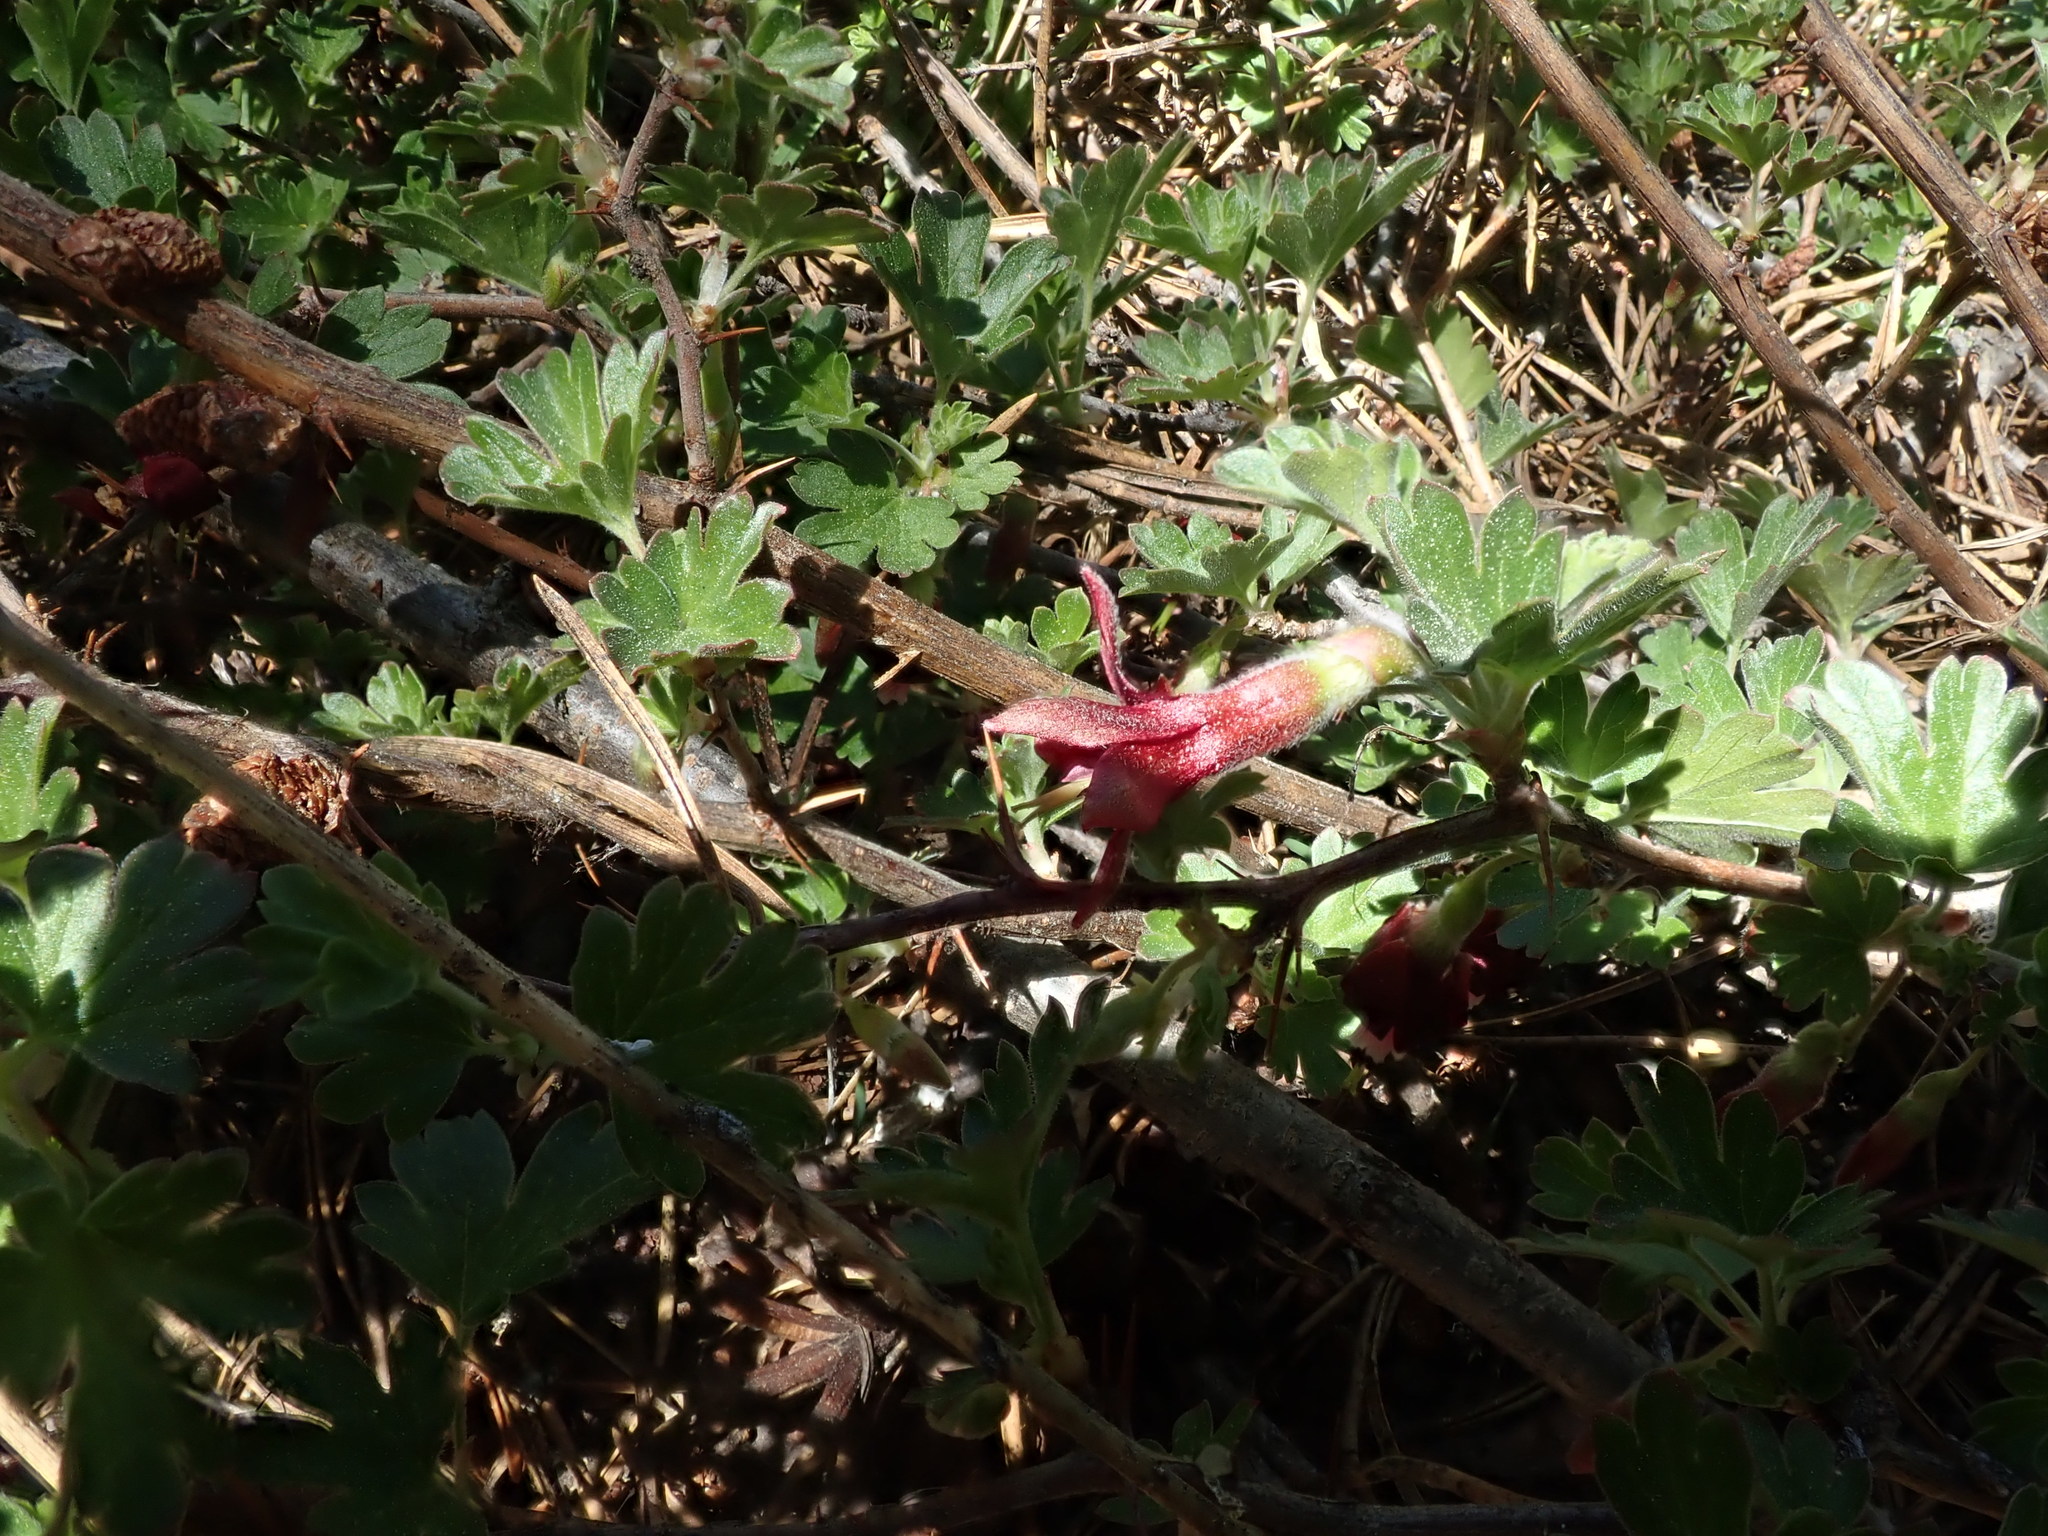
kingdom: Plantae
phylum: Tracheophyta
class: Magnoliopsida
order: Saxifragales
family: Grossulariaceae
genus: Ribes
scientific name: Ribes roezlii
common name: Sierra gooseberry
